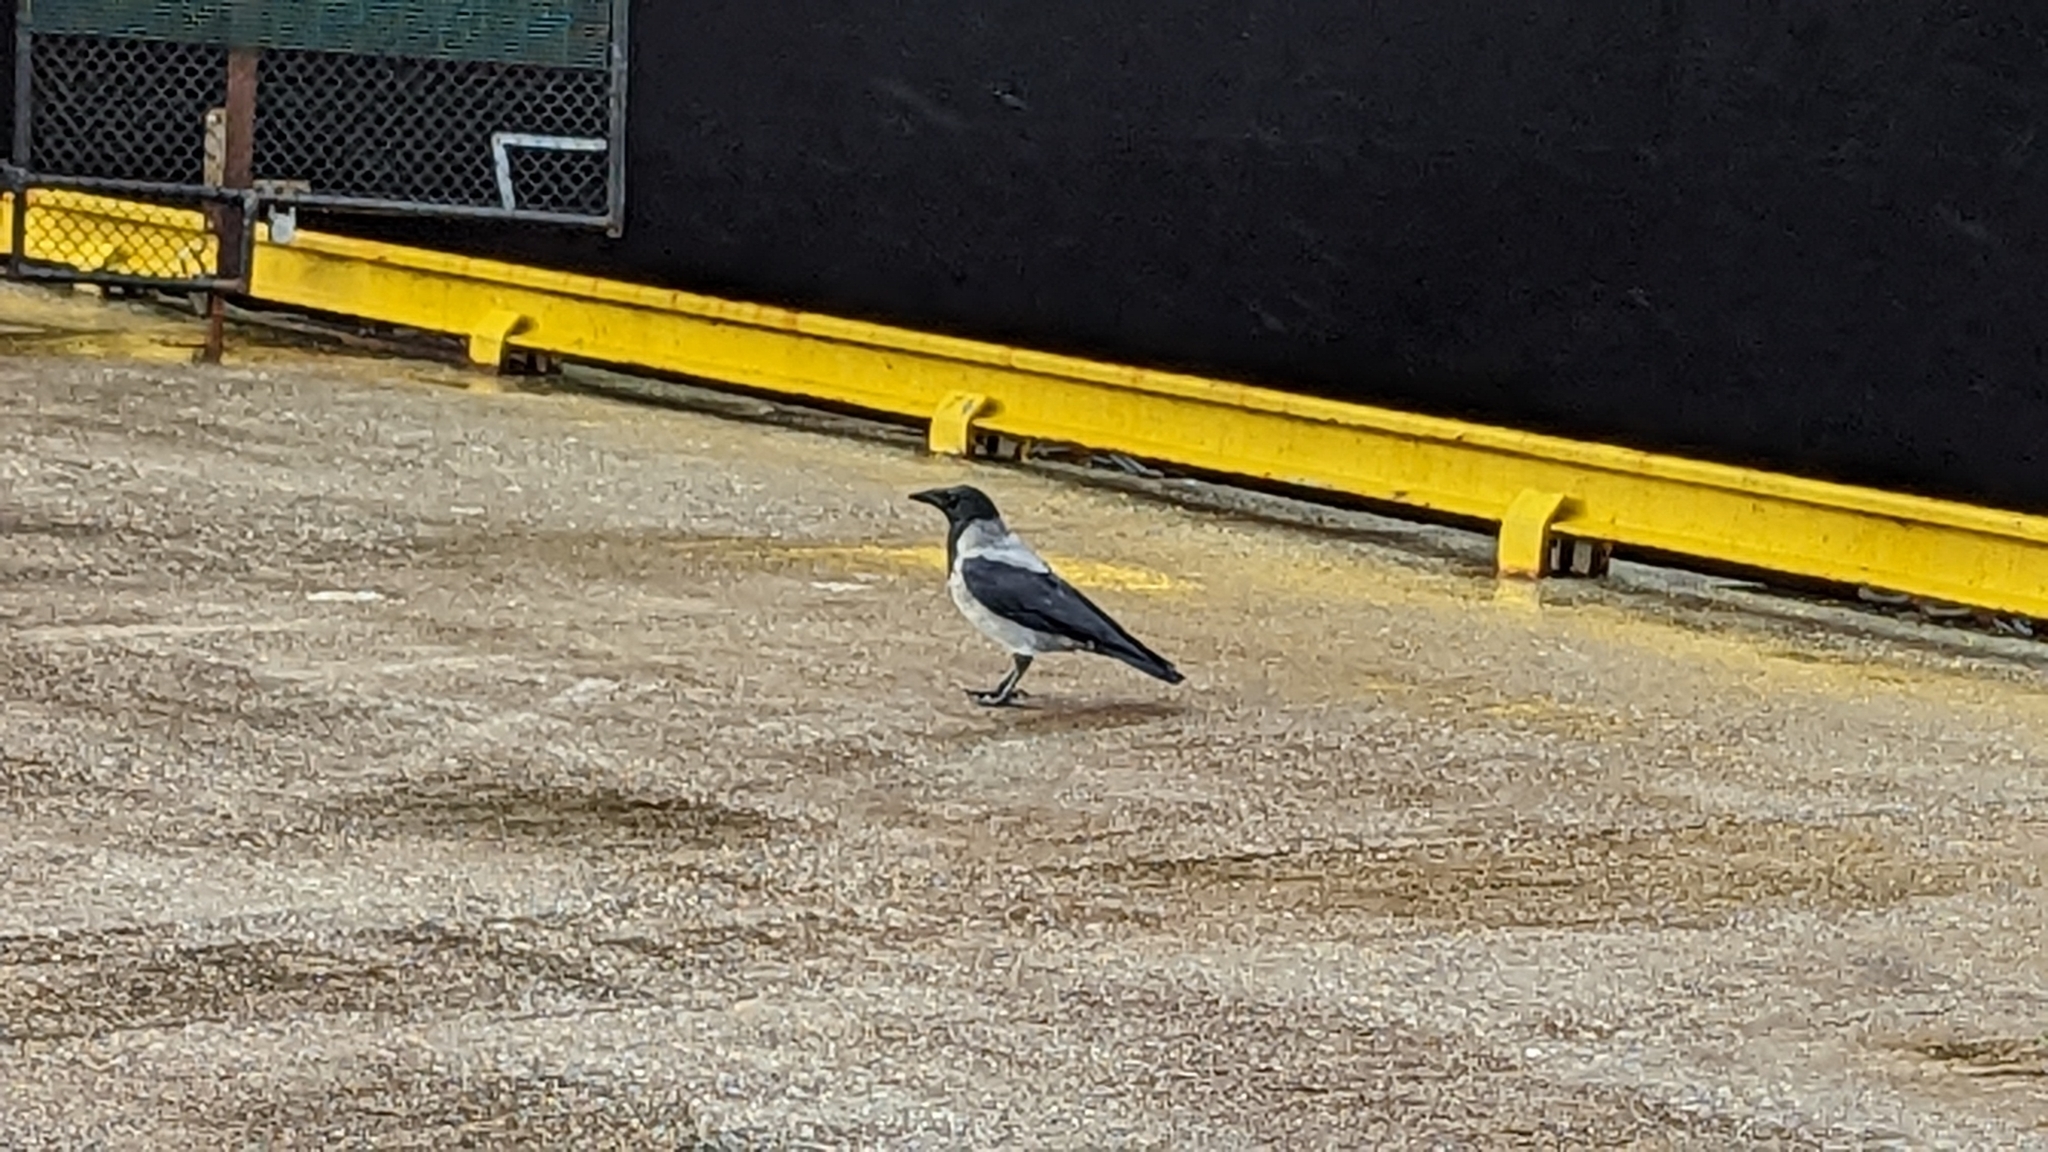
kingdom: Animalia
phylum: Chordata
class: Aves
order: Passeriformes
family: Corvidae
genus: Corvus
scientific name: Corvus cornix
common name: Hooded crow
